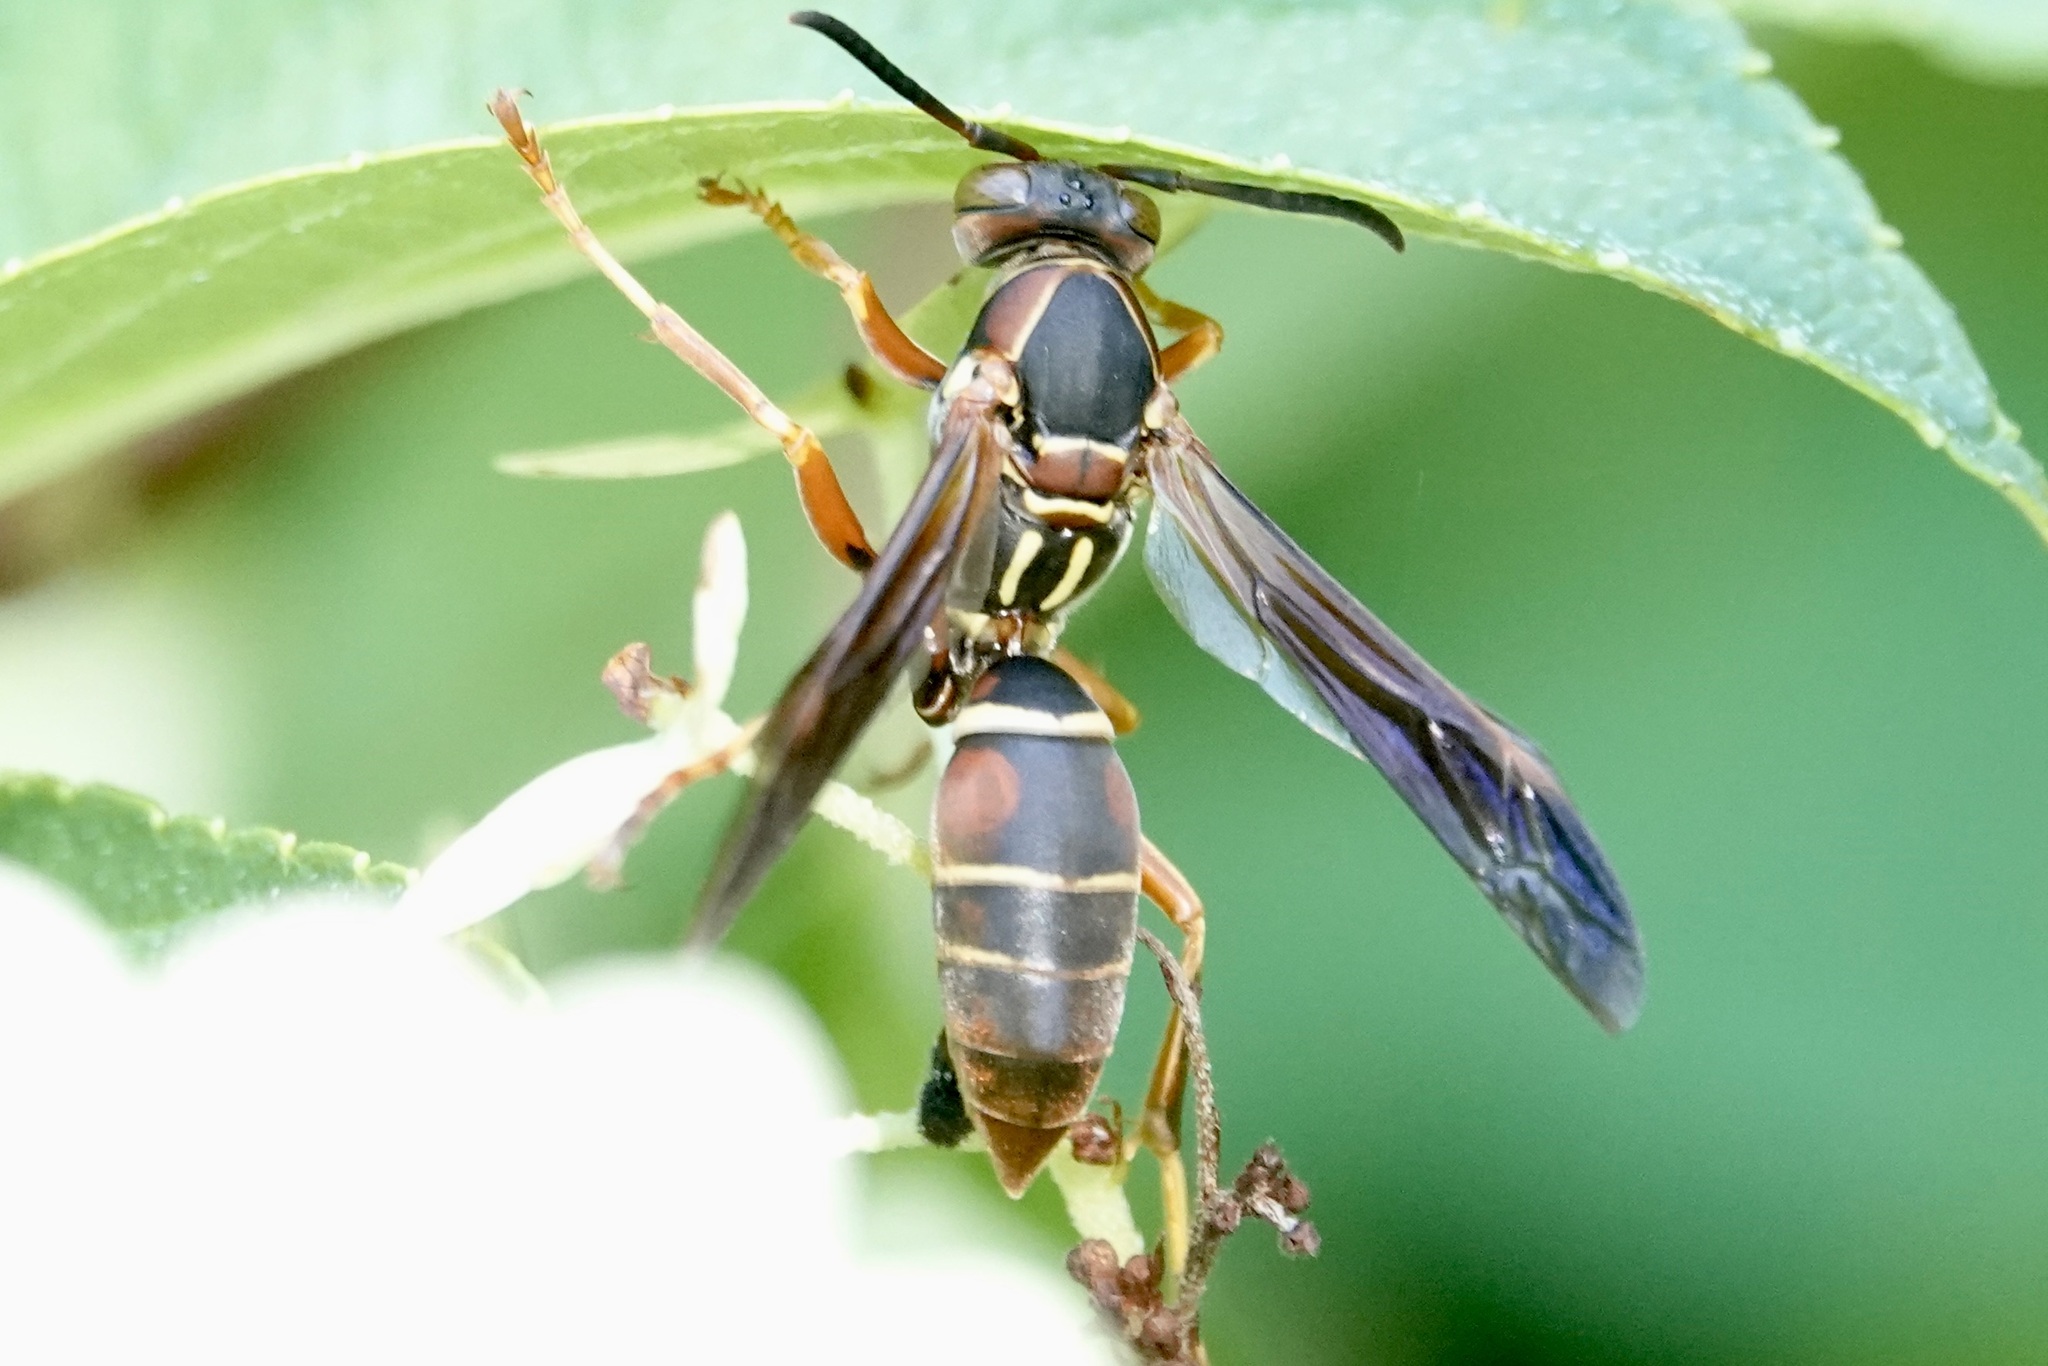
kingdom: Animalia
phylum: Arthropoda
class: Insecta
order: Hymenoptera
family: Eumenidae
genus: Polistes
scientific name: Polistes fuscatus
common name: Dark paper wasp
